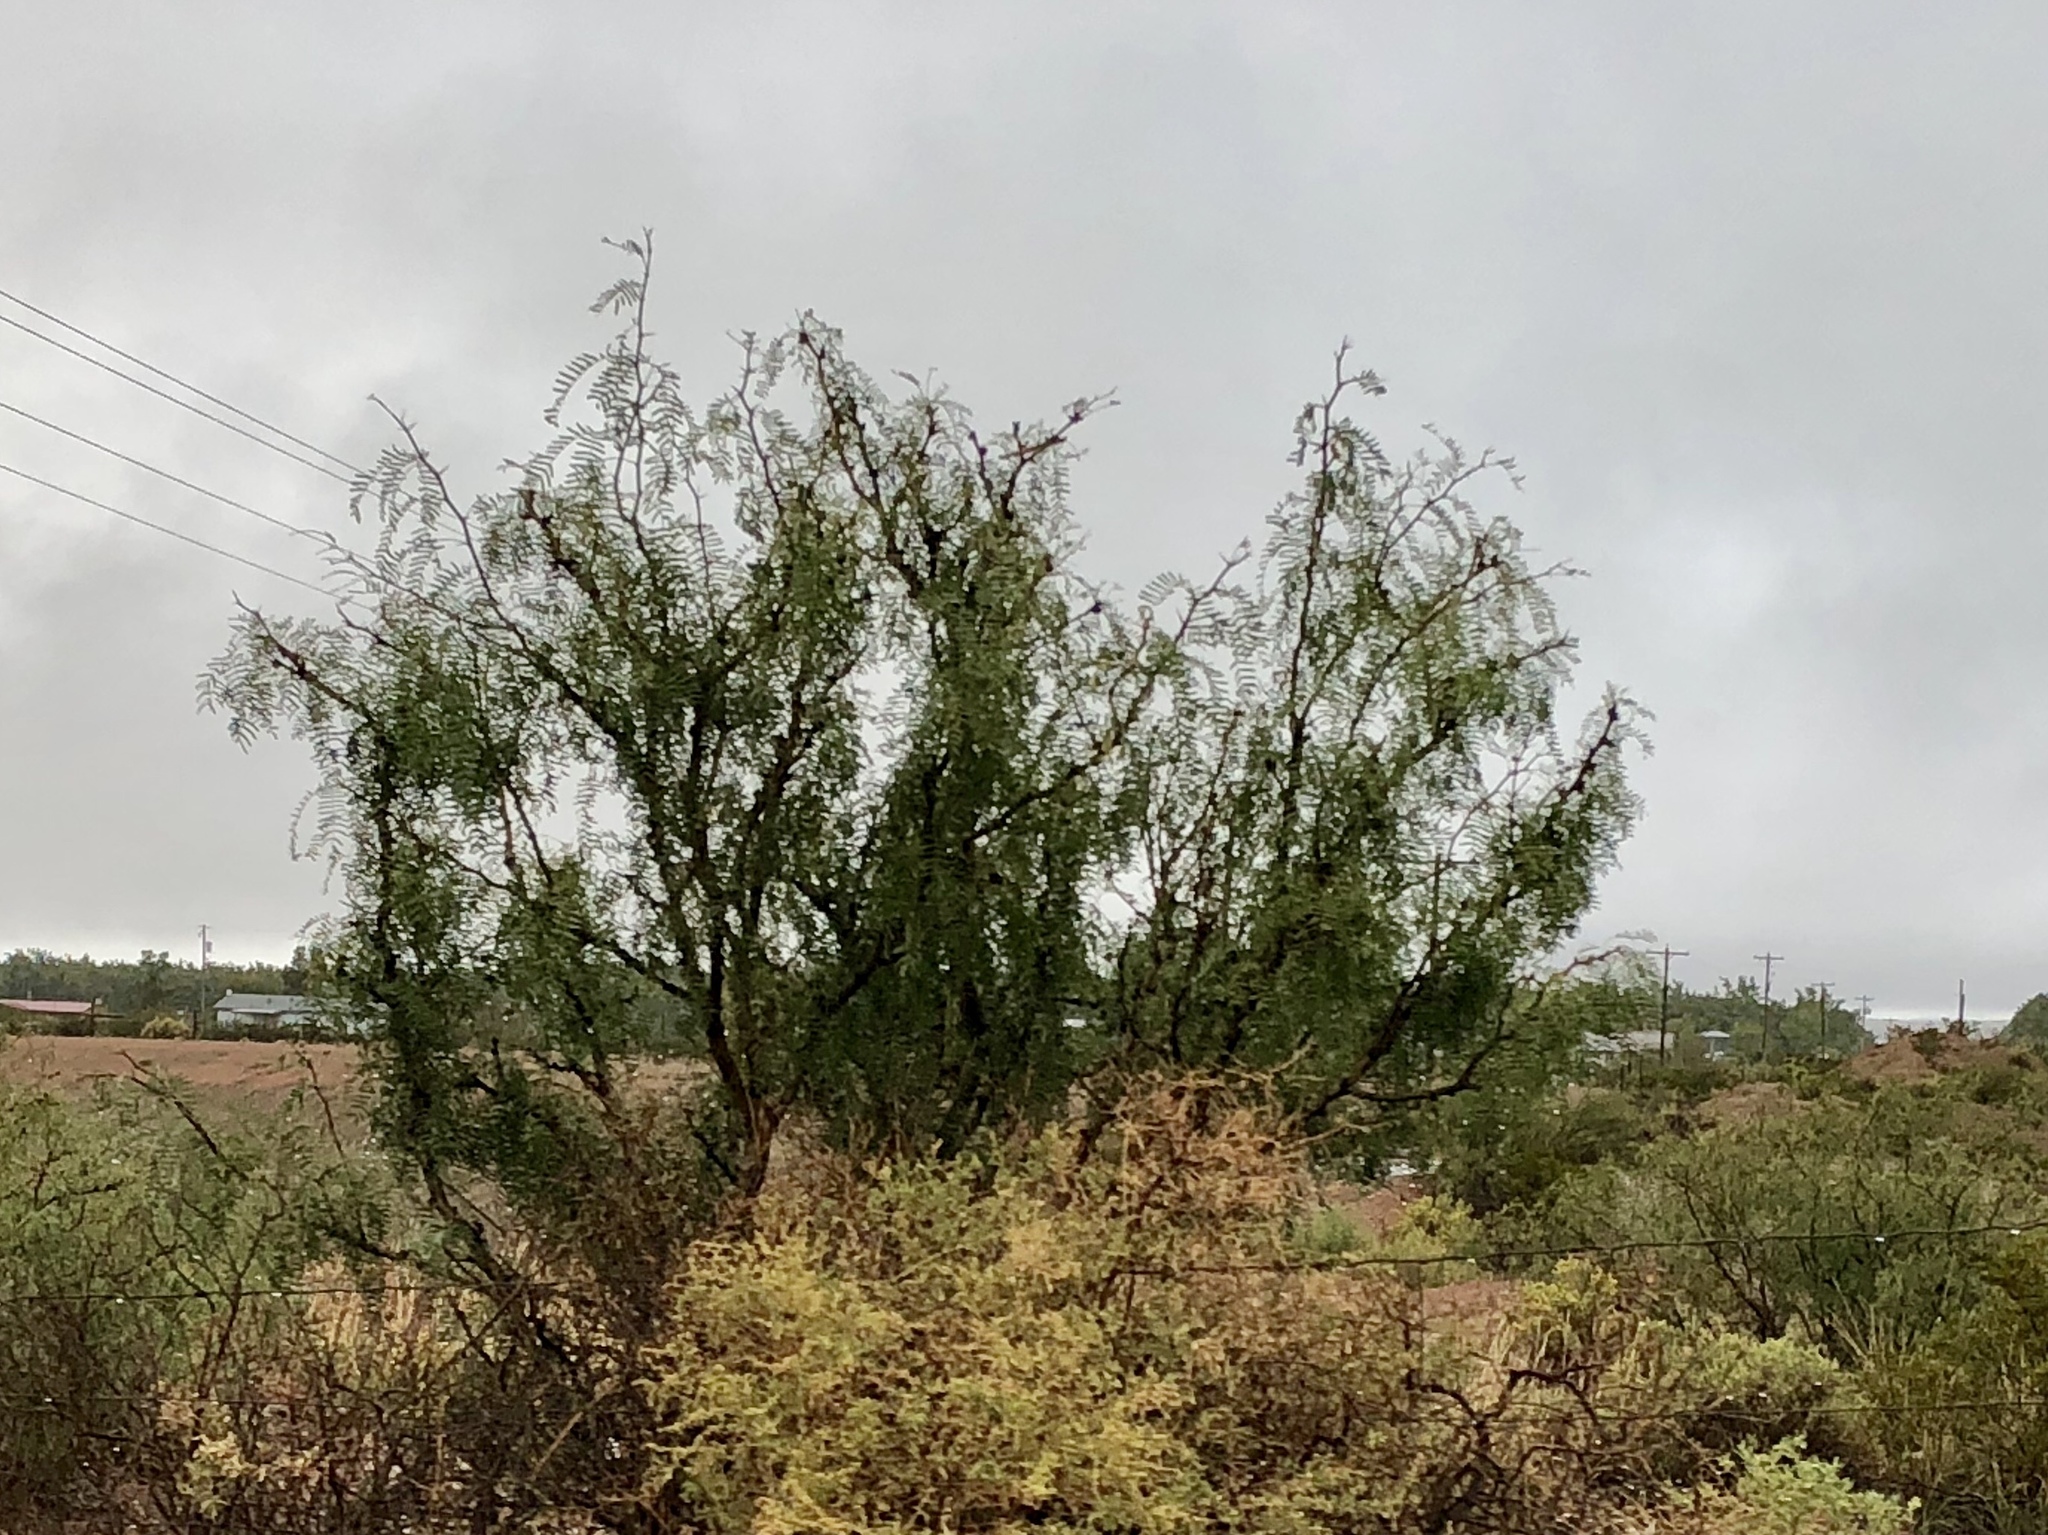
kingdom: Plantae
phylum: Tracheophyta
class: Magnoliopsida
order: Fabales
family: Fabaceae
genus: Prosopis
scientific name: Prosopis glandulosa
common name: Honey mesquite
